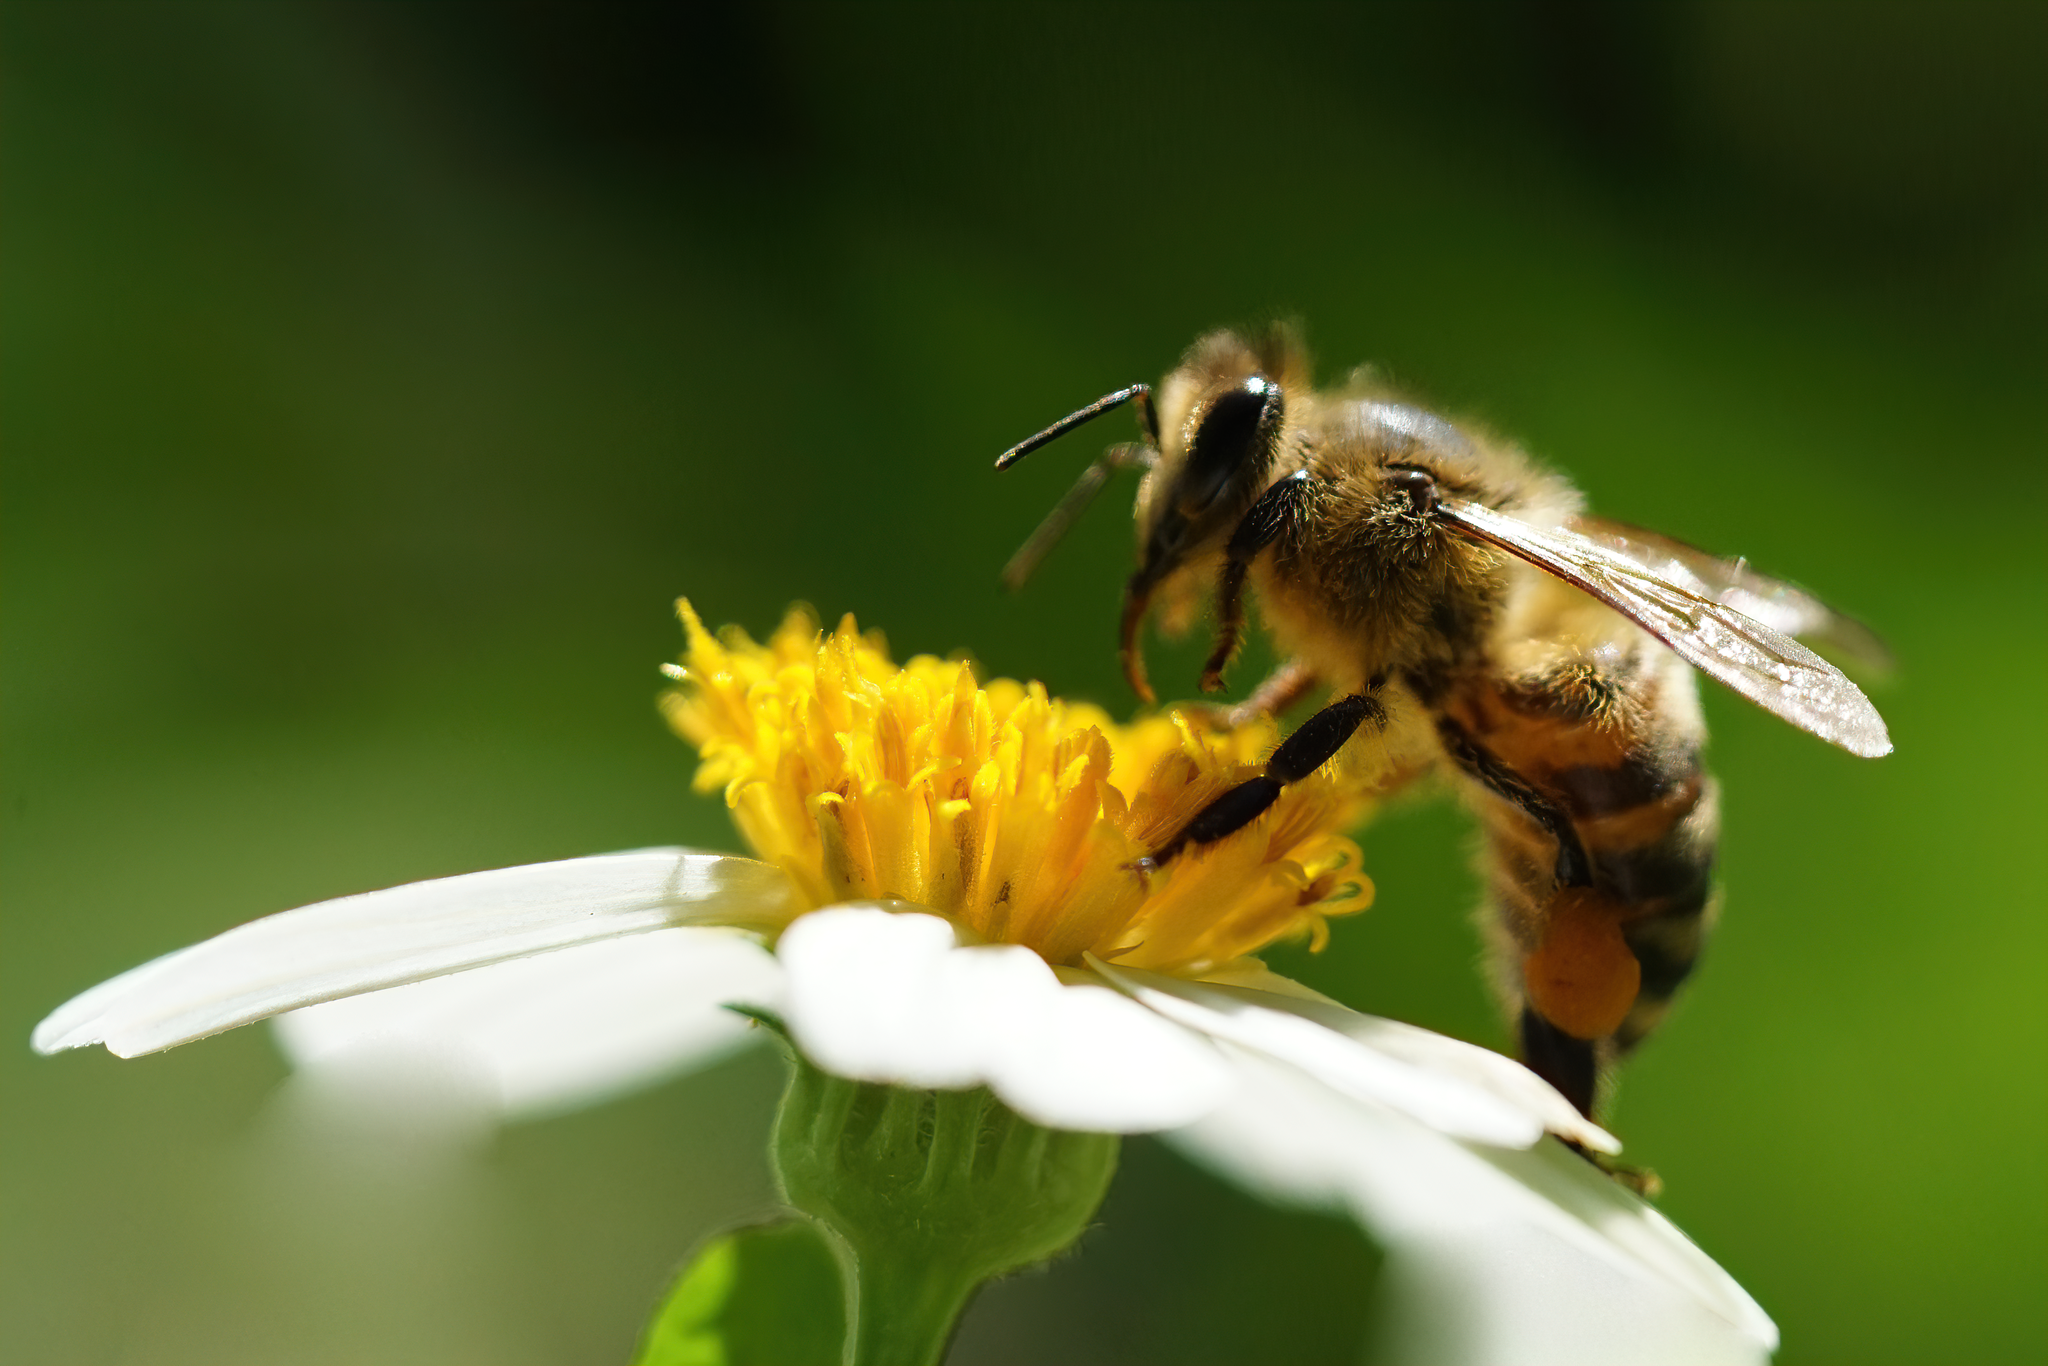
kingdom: Animalia
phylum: Arthropoda
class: Insecta
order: Hymenoptera
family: Apidae
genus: Apis
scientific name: Apis mellifera
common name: Honey bee
